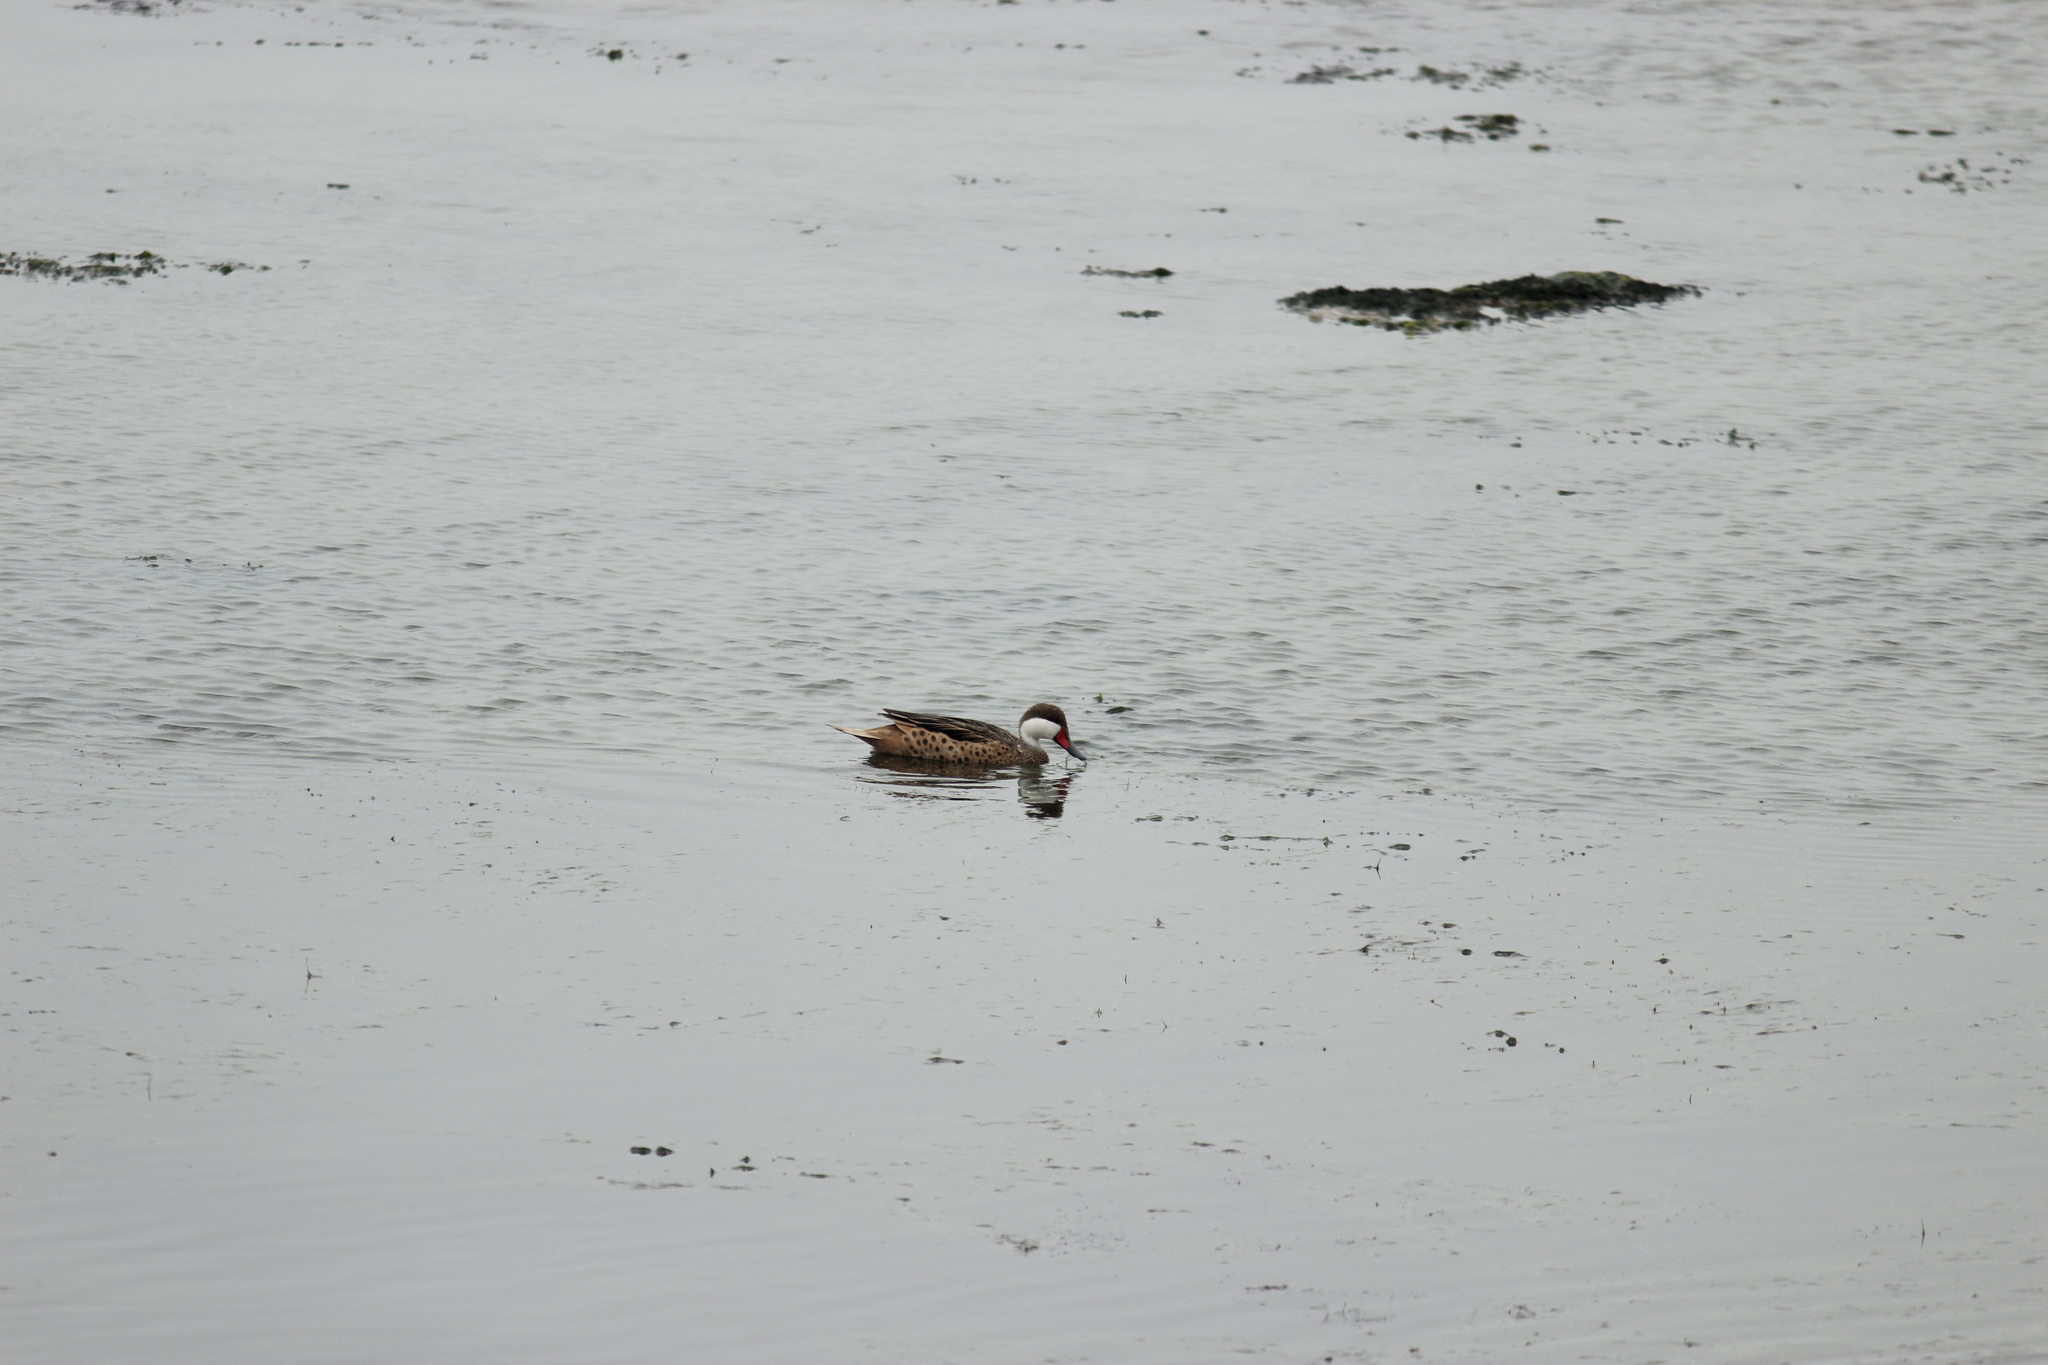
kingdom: Animalia
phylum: Chordata
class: Aves
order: Anseriformes
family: Anatidae
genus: Anas
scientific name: Anas bahamensis
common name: White-cheeked pintail
